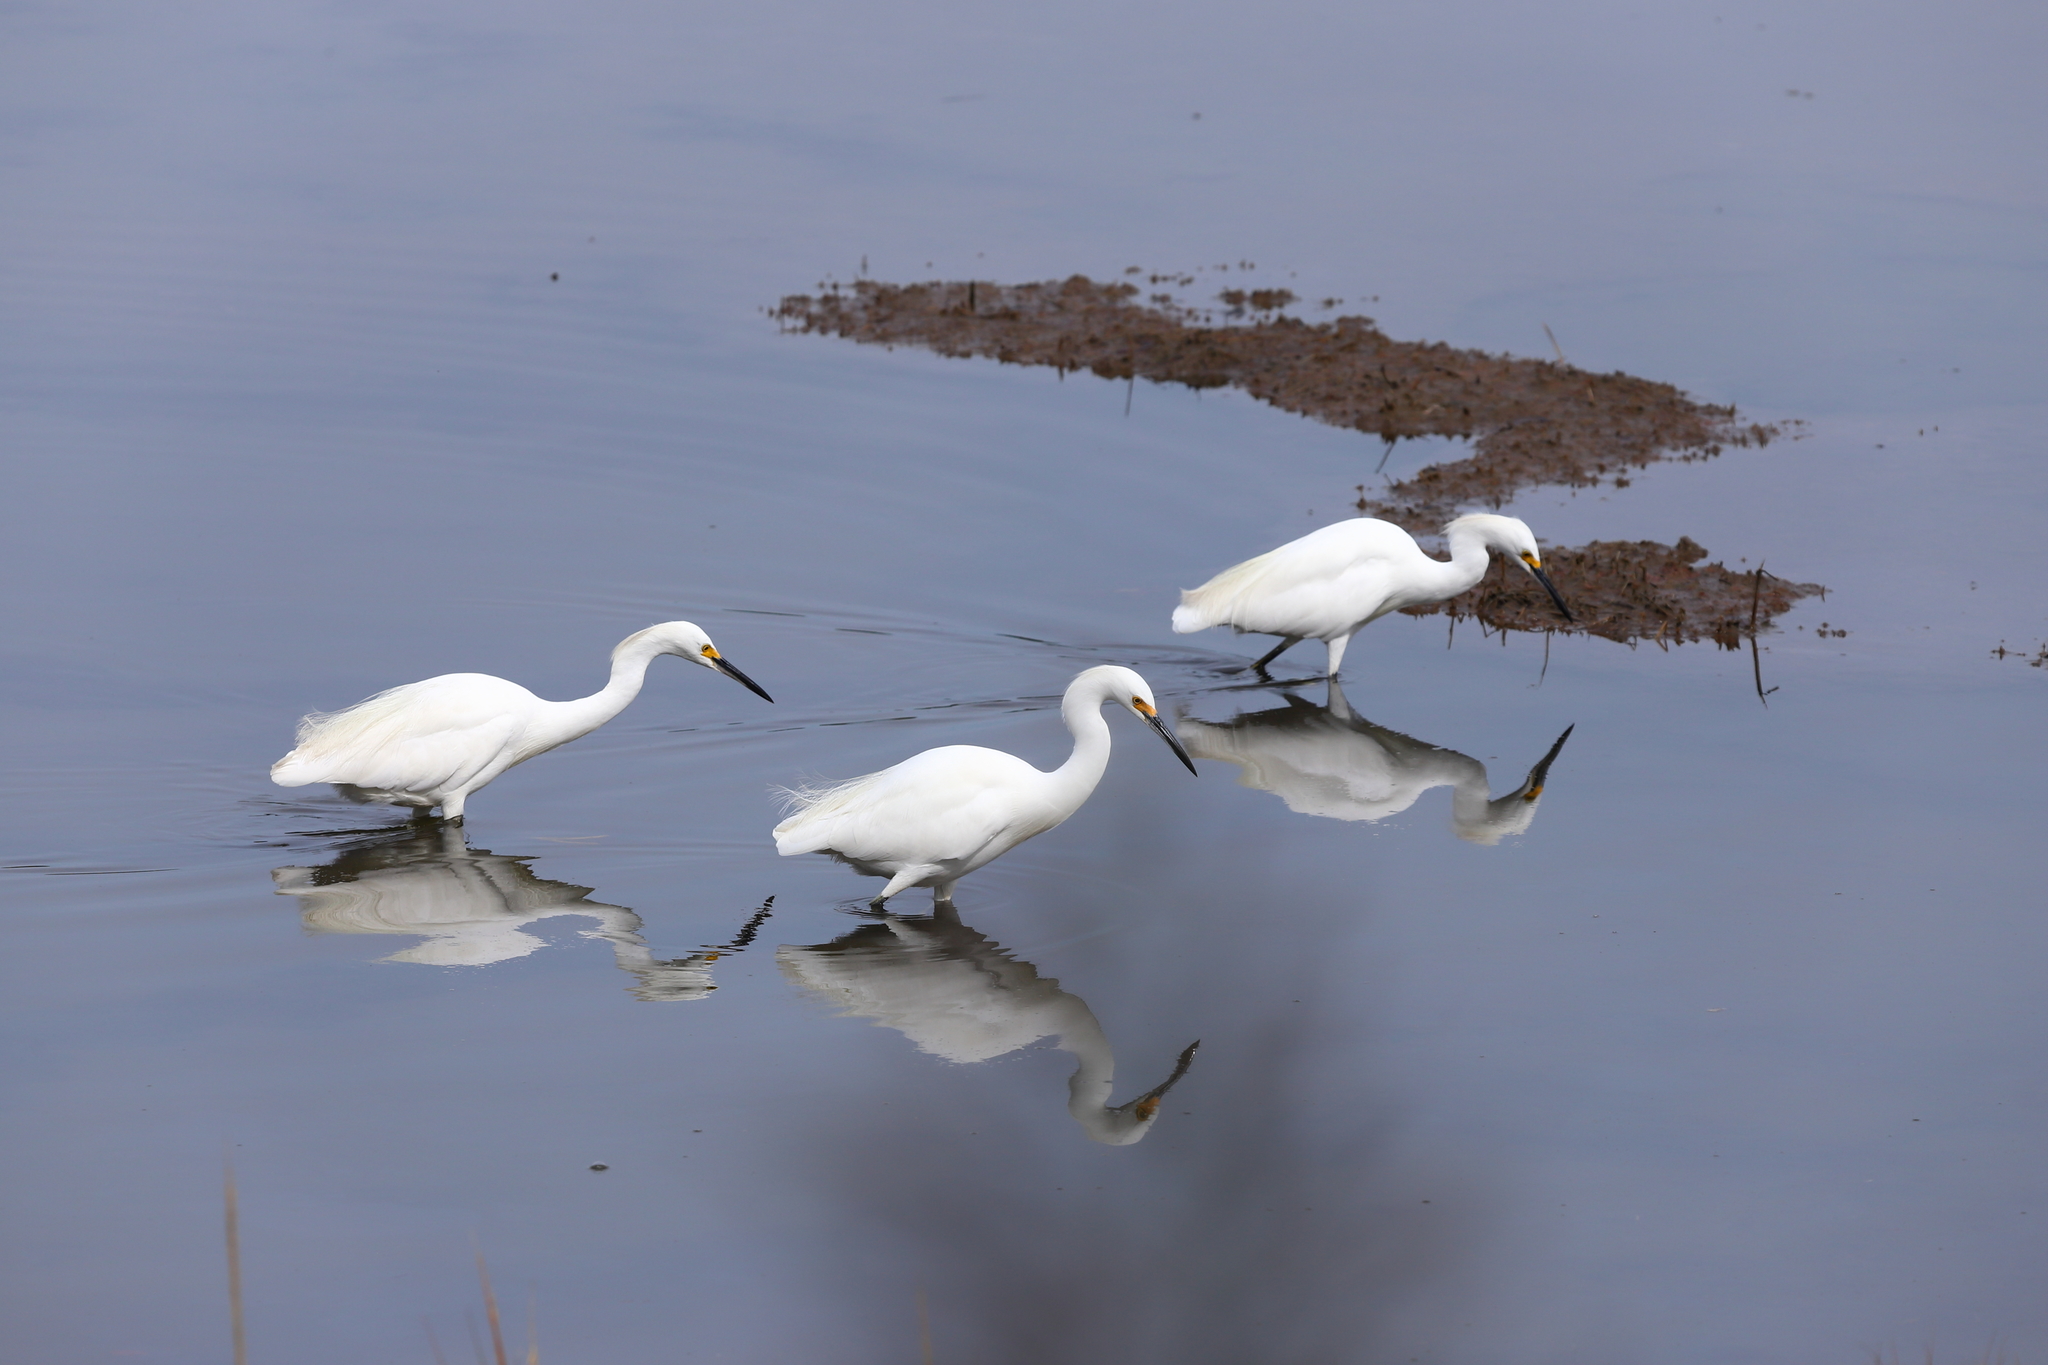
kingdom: Animalia
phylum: Chordata
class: Aves
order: Pelecaniformes
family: Ardeidae
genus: Egretta
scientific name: Egretta thula
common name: Snowy egret
